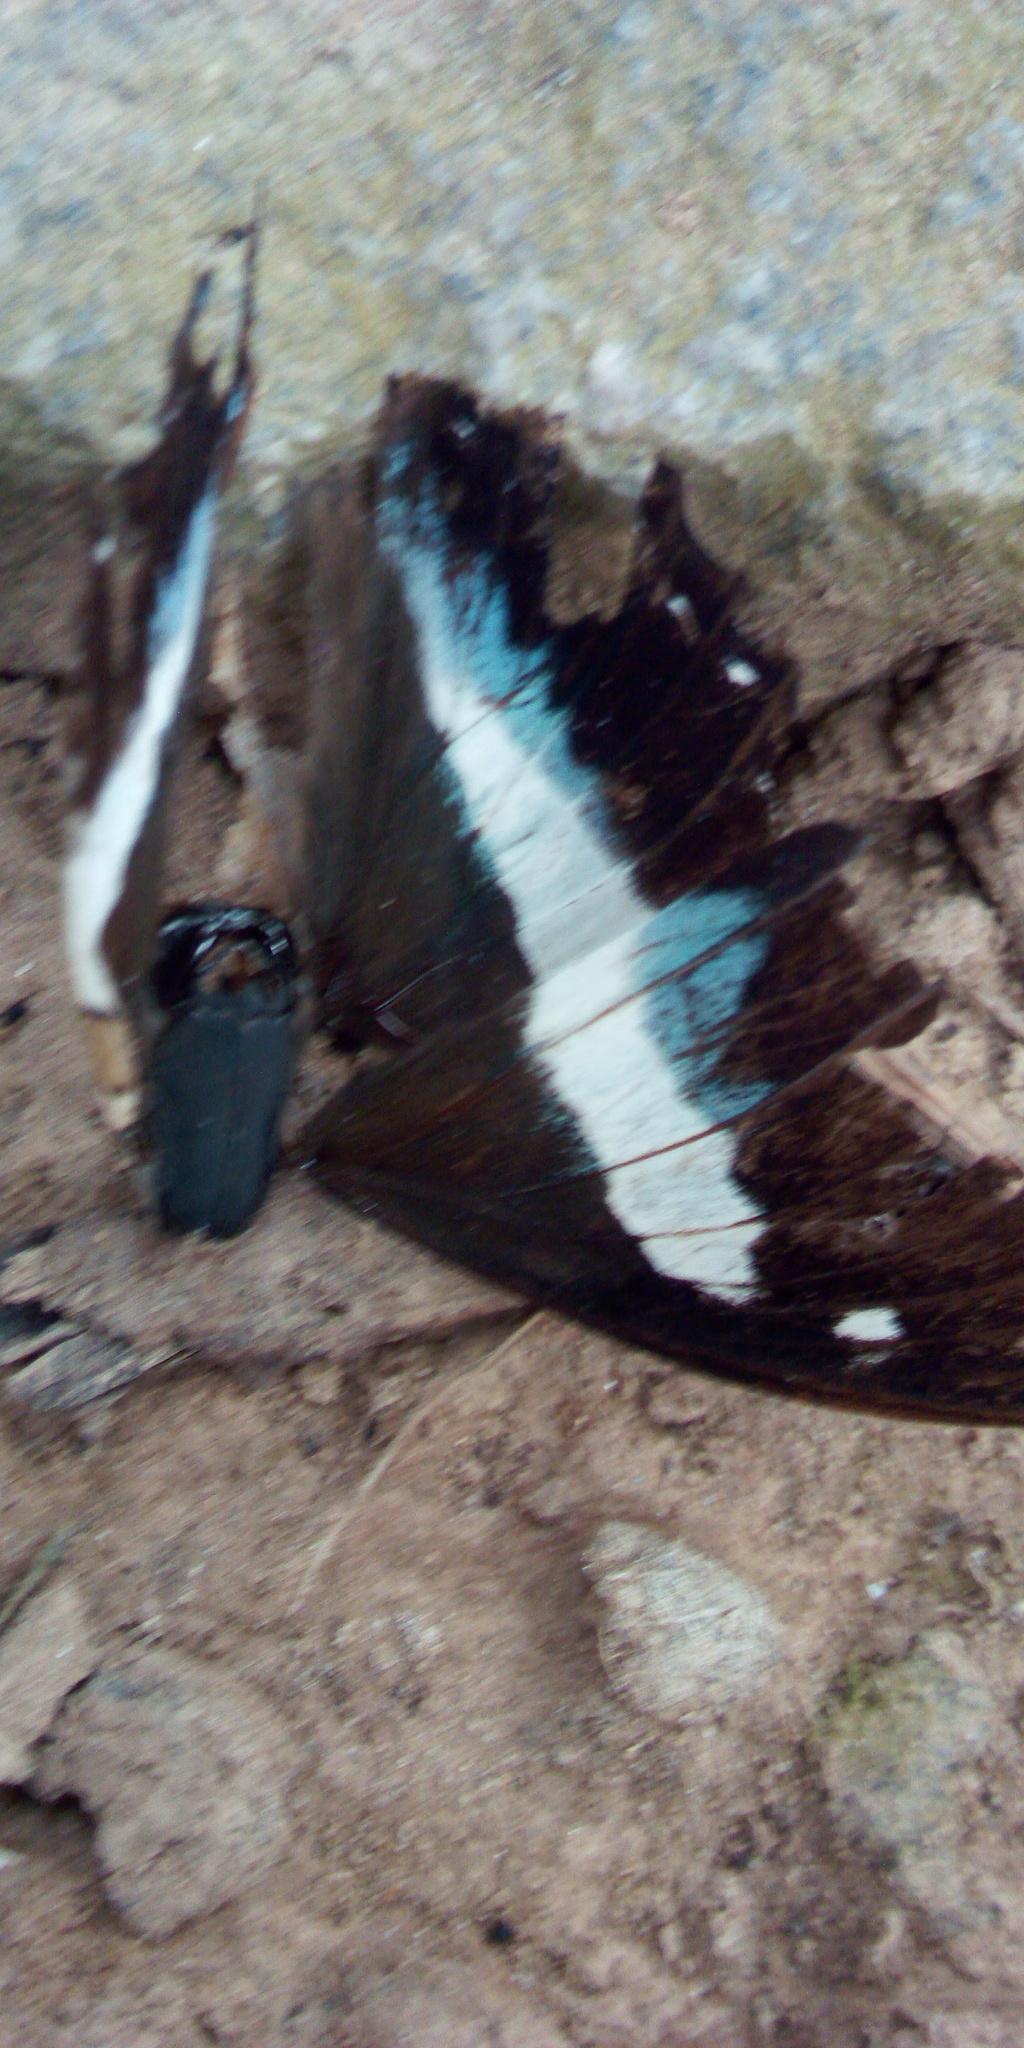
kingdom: Animalia
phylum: Arthropoda
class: Insecta
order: Lepidoptera
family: Nymphalidae
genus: Polyura
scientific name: Polyura schreiber
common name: Blue nawab
